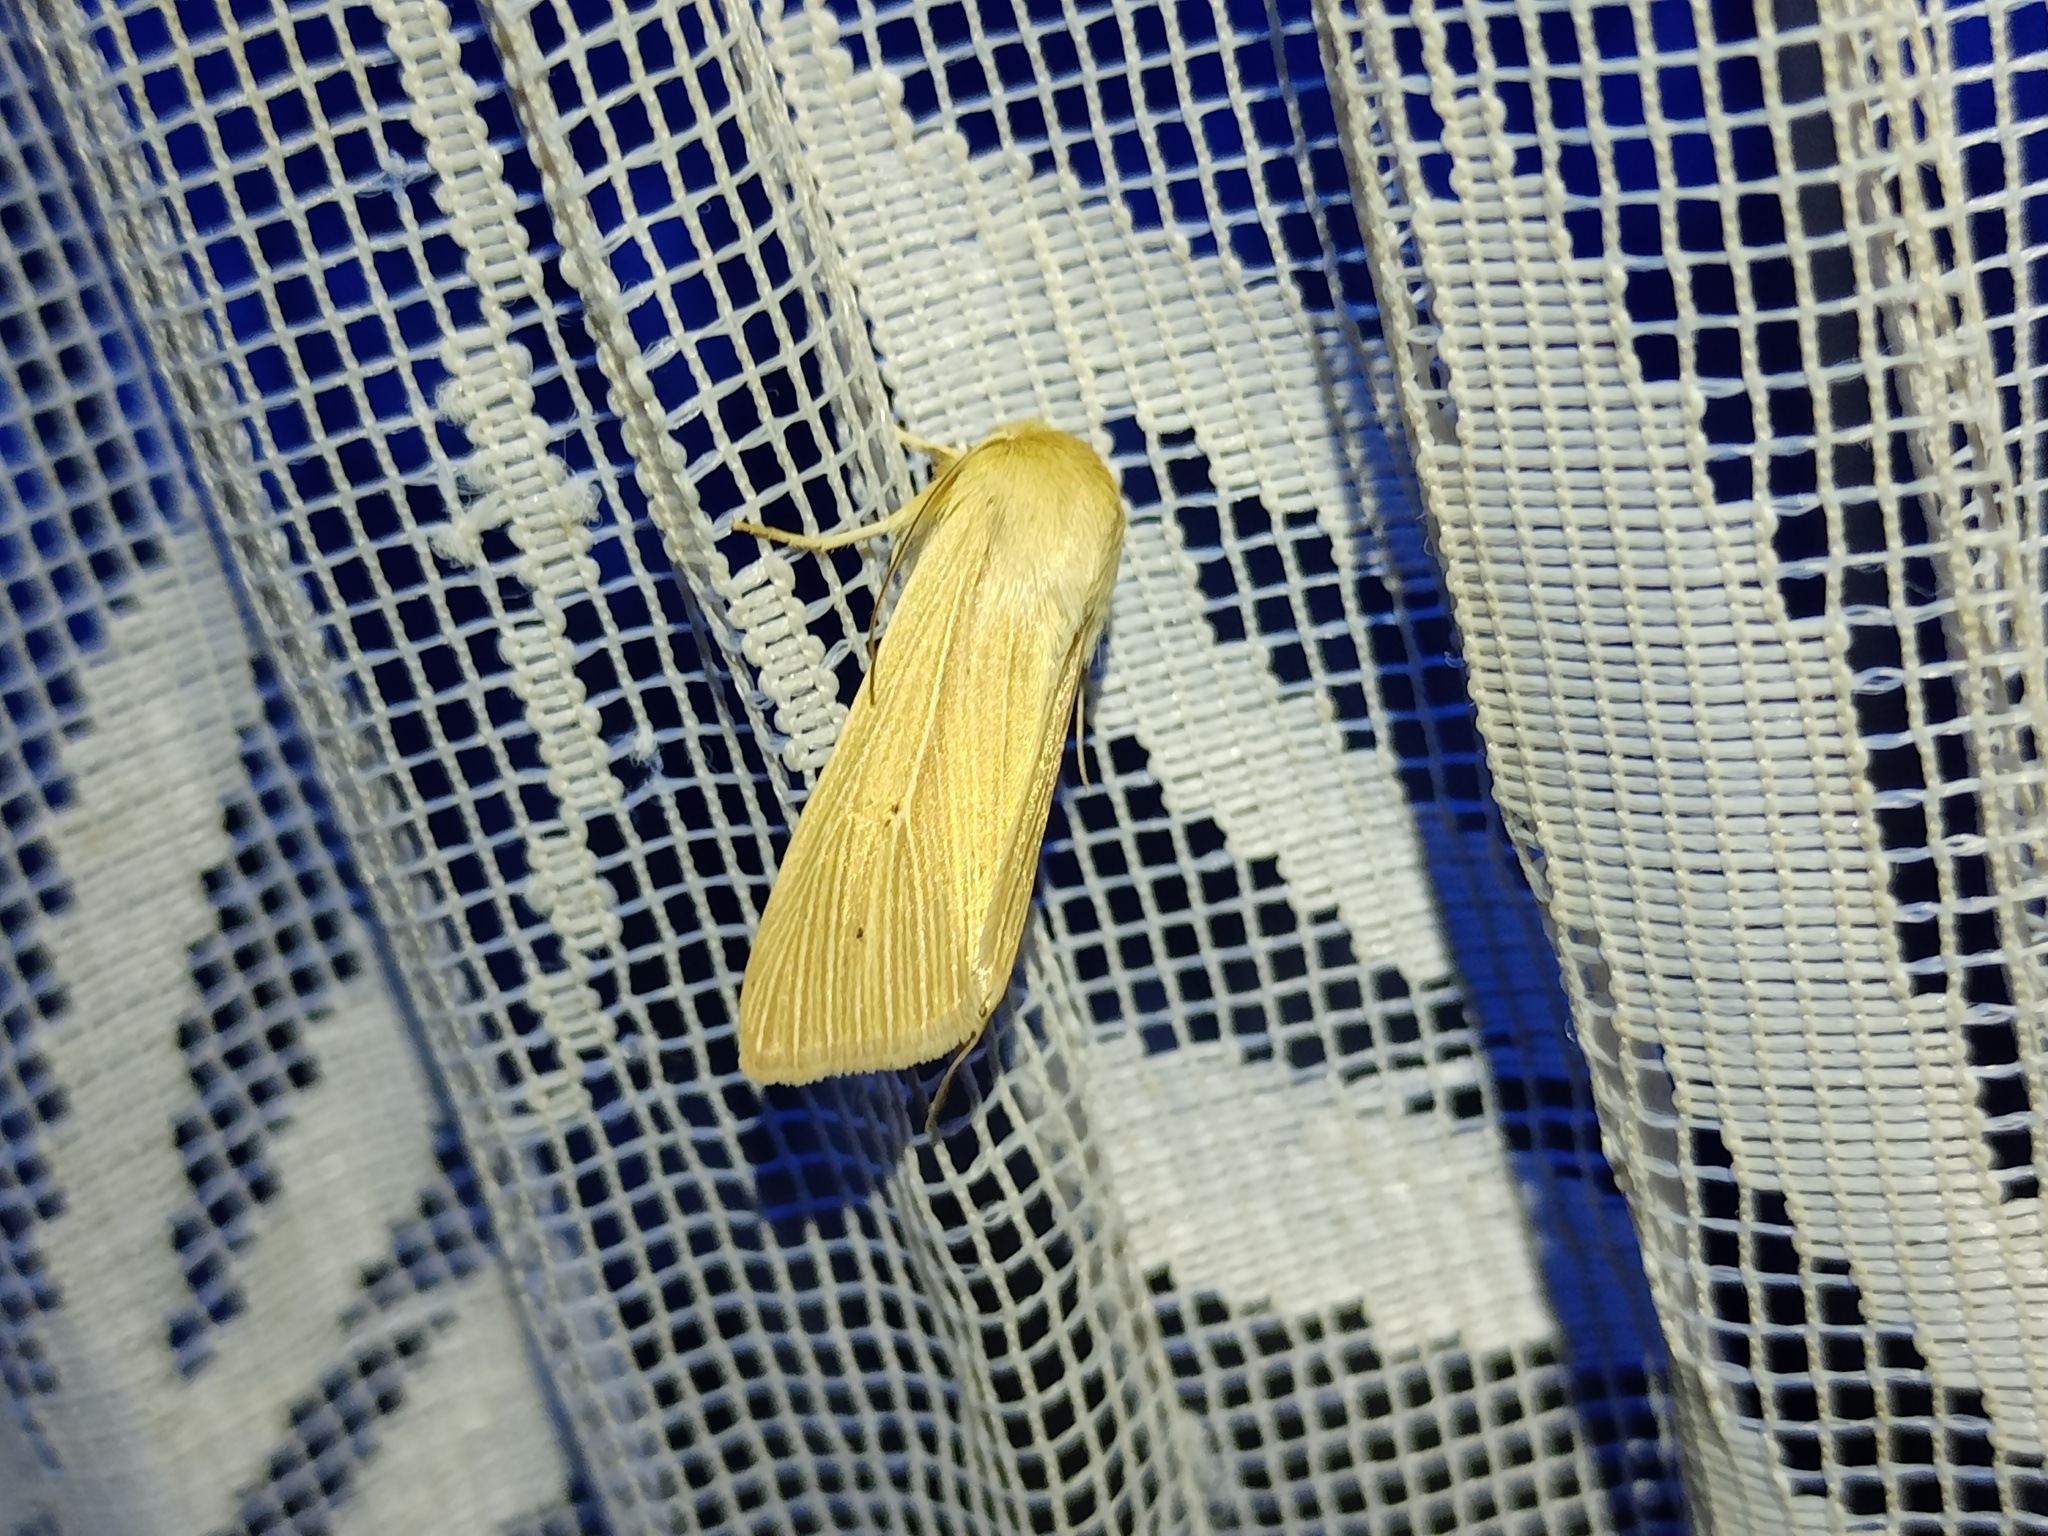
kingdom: Animalia
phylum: Arthropoda
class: Insecta
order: Lepidoptera
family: Noctuidae
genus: Mythimna
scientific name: Mythimna pallens
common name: Common wainscot
